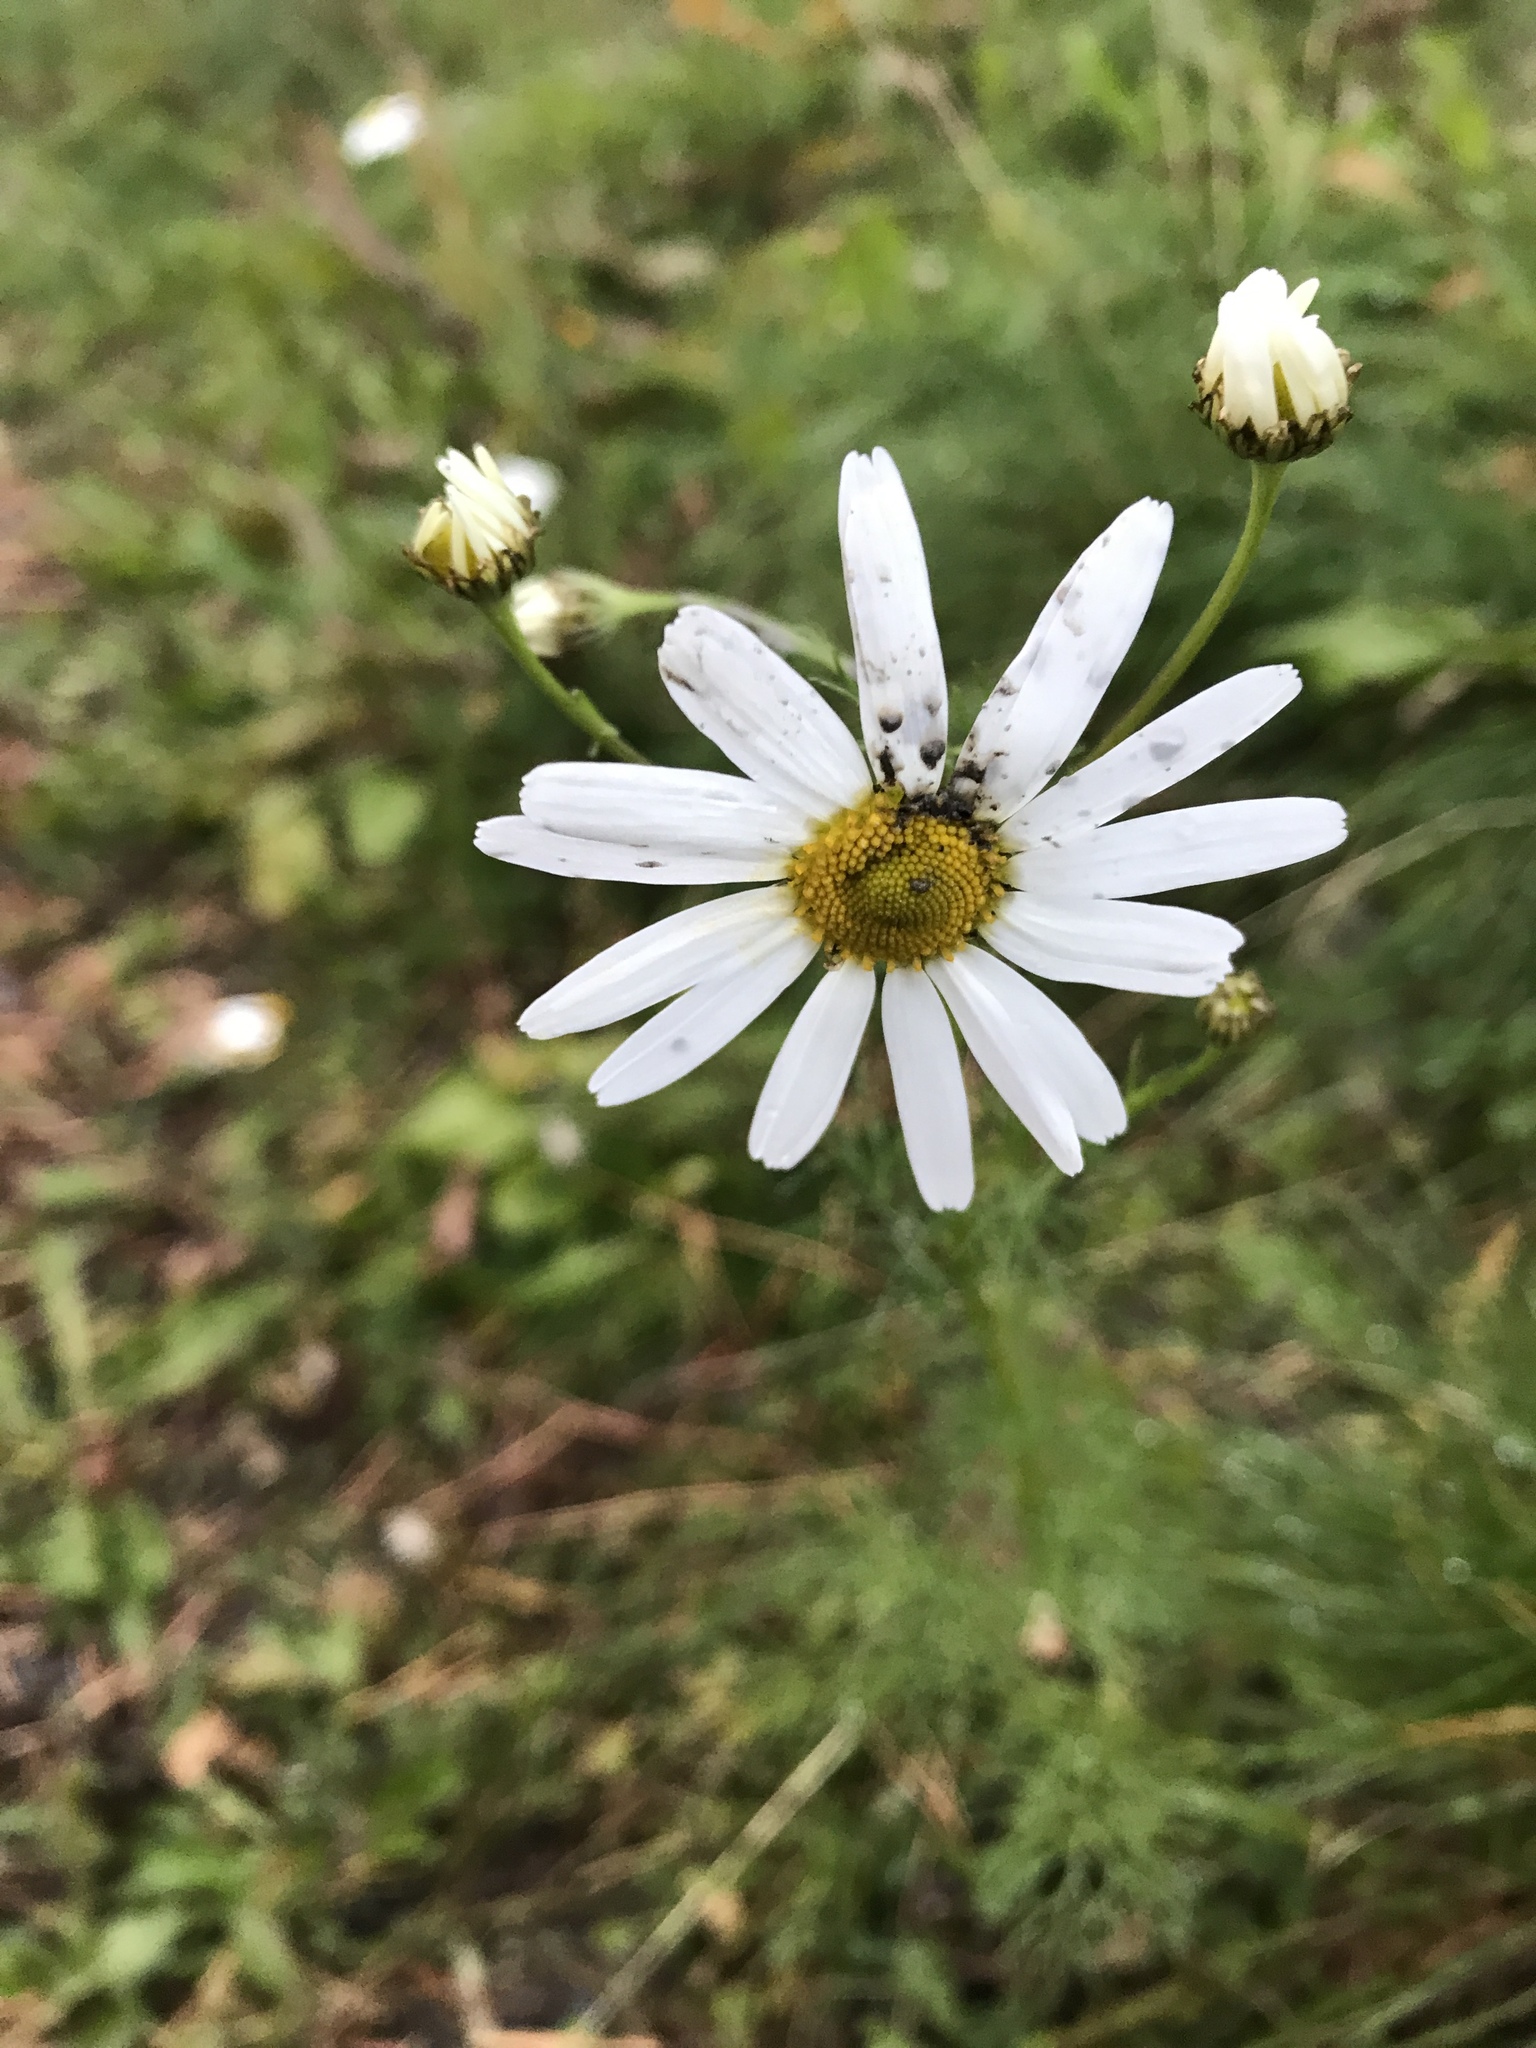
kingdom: Plantae
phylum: Tracheophyta
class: Magnoliopsida
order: Asterales
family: Asteraceae
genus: Leucanthemum
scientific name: Leucanthemum vulgare
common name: Oxeye daisy
